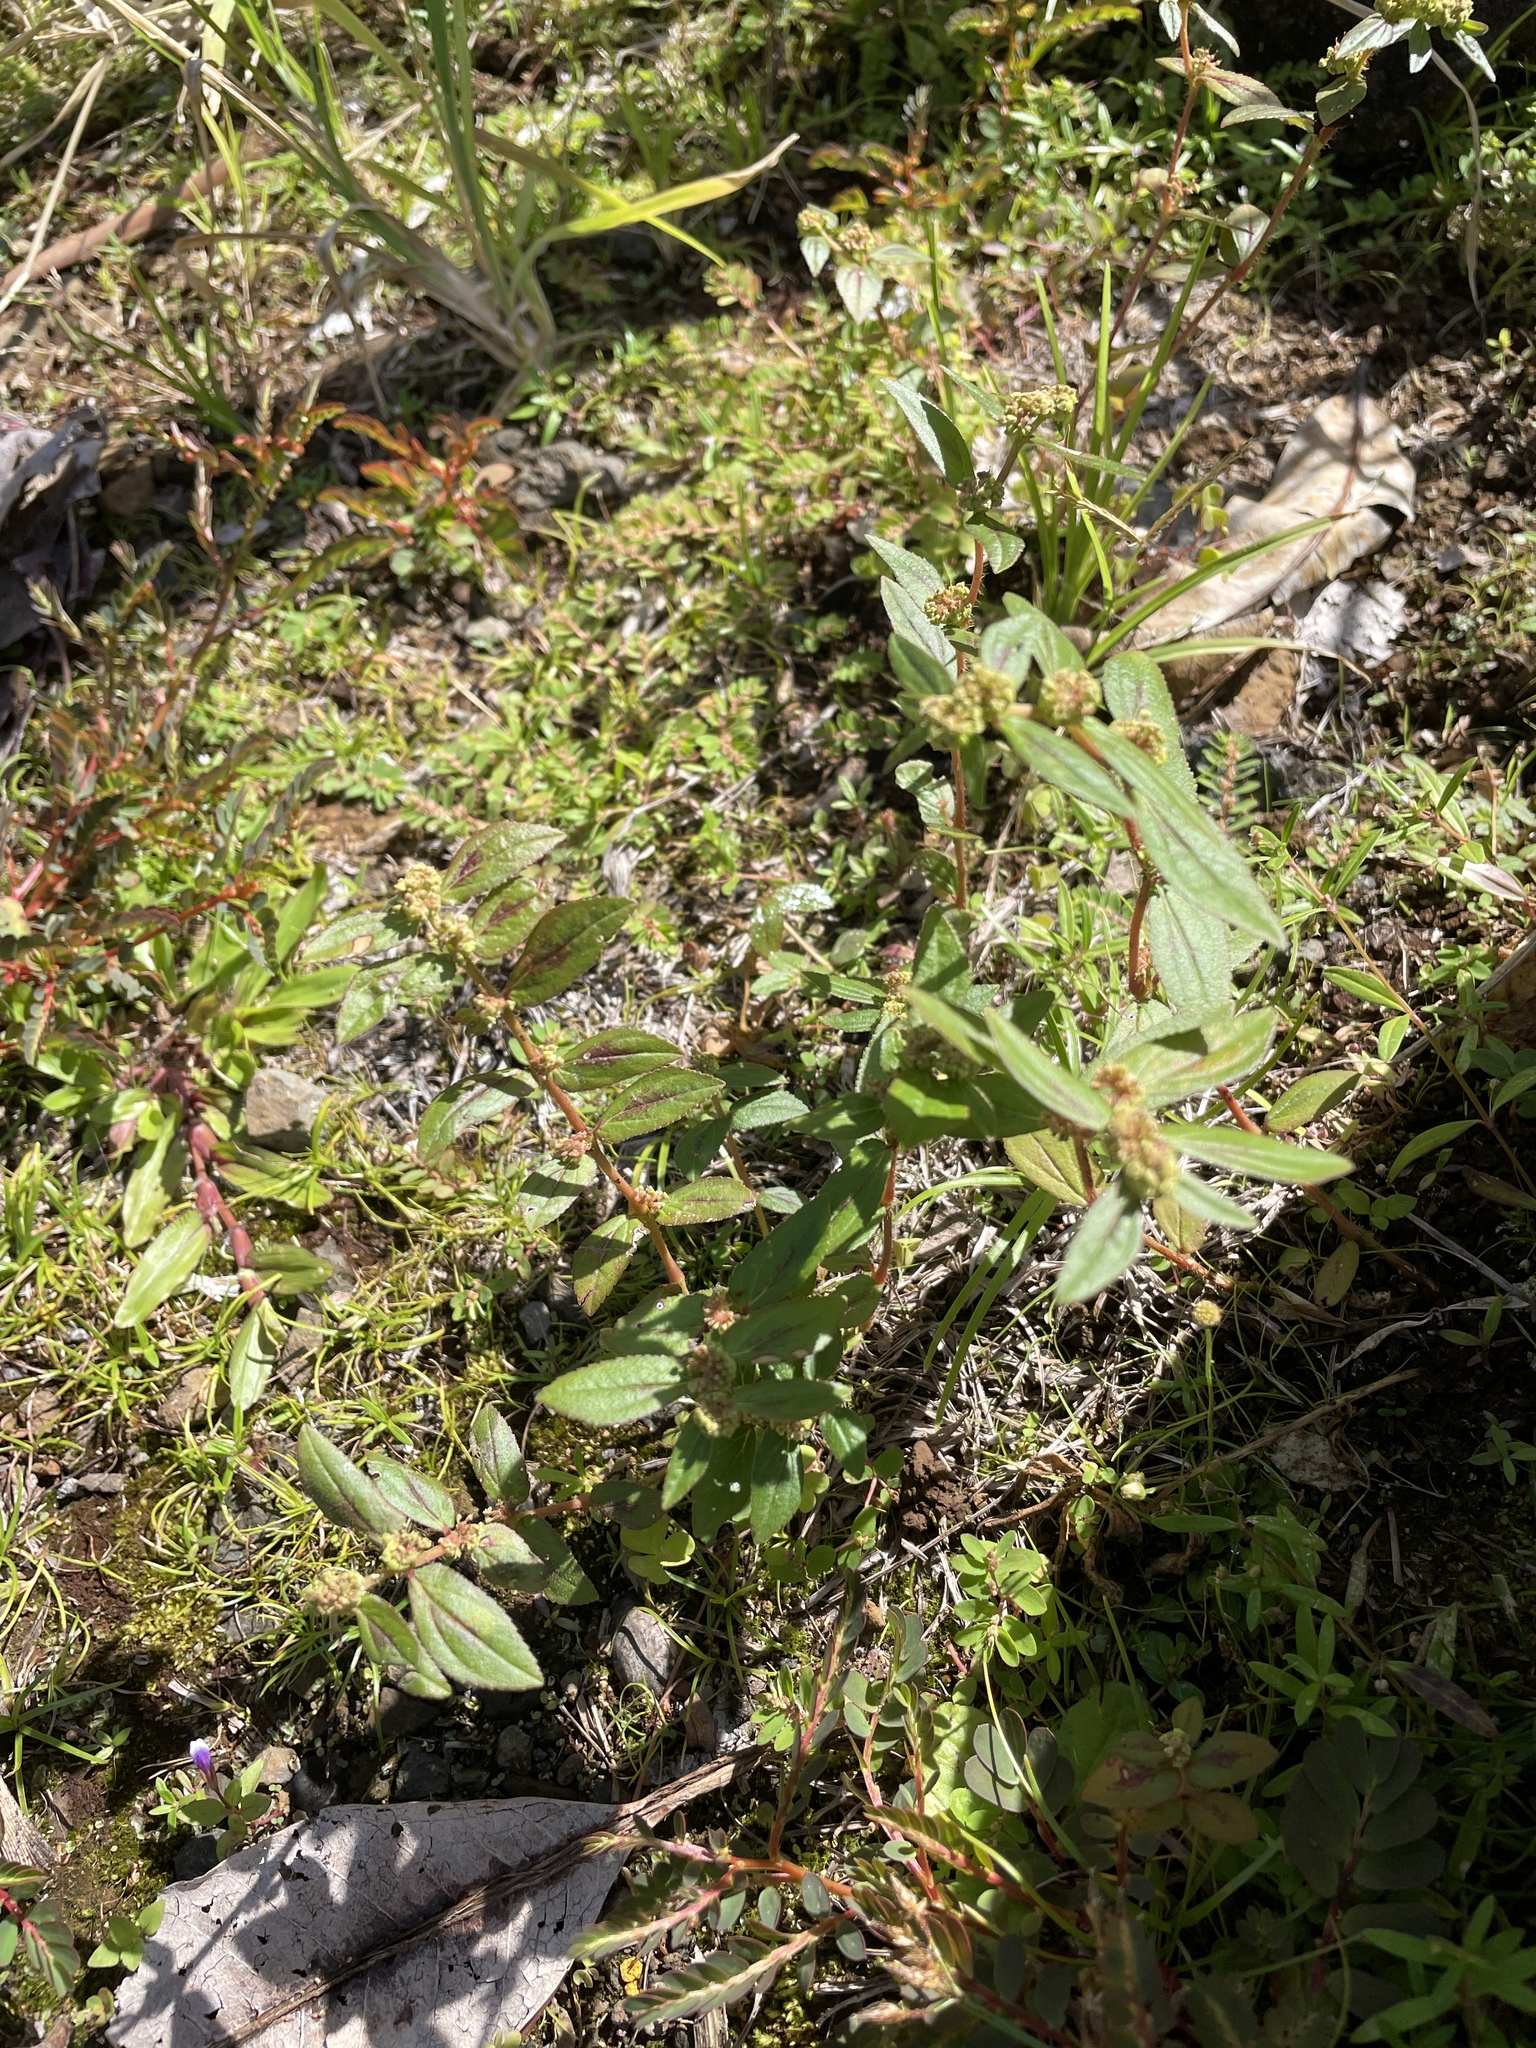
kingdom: Plantae
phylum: Tracheophyta
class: Magnoliopsida
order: Malpighiales
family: Euphorbiaceae
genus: Euphorbia
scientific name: Euphorbia hirta
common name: Pillpod sandmat
